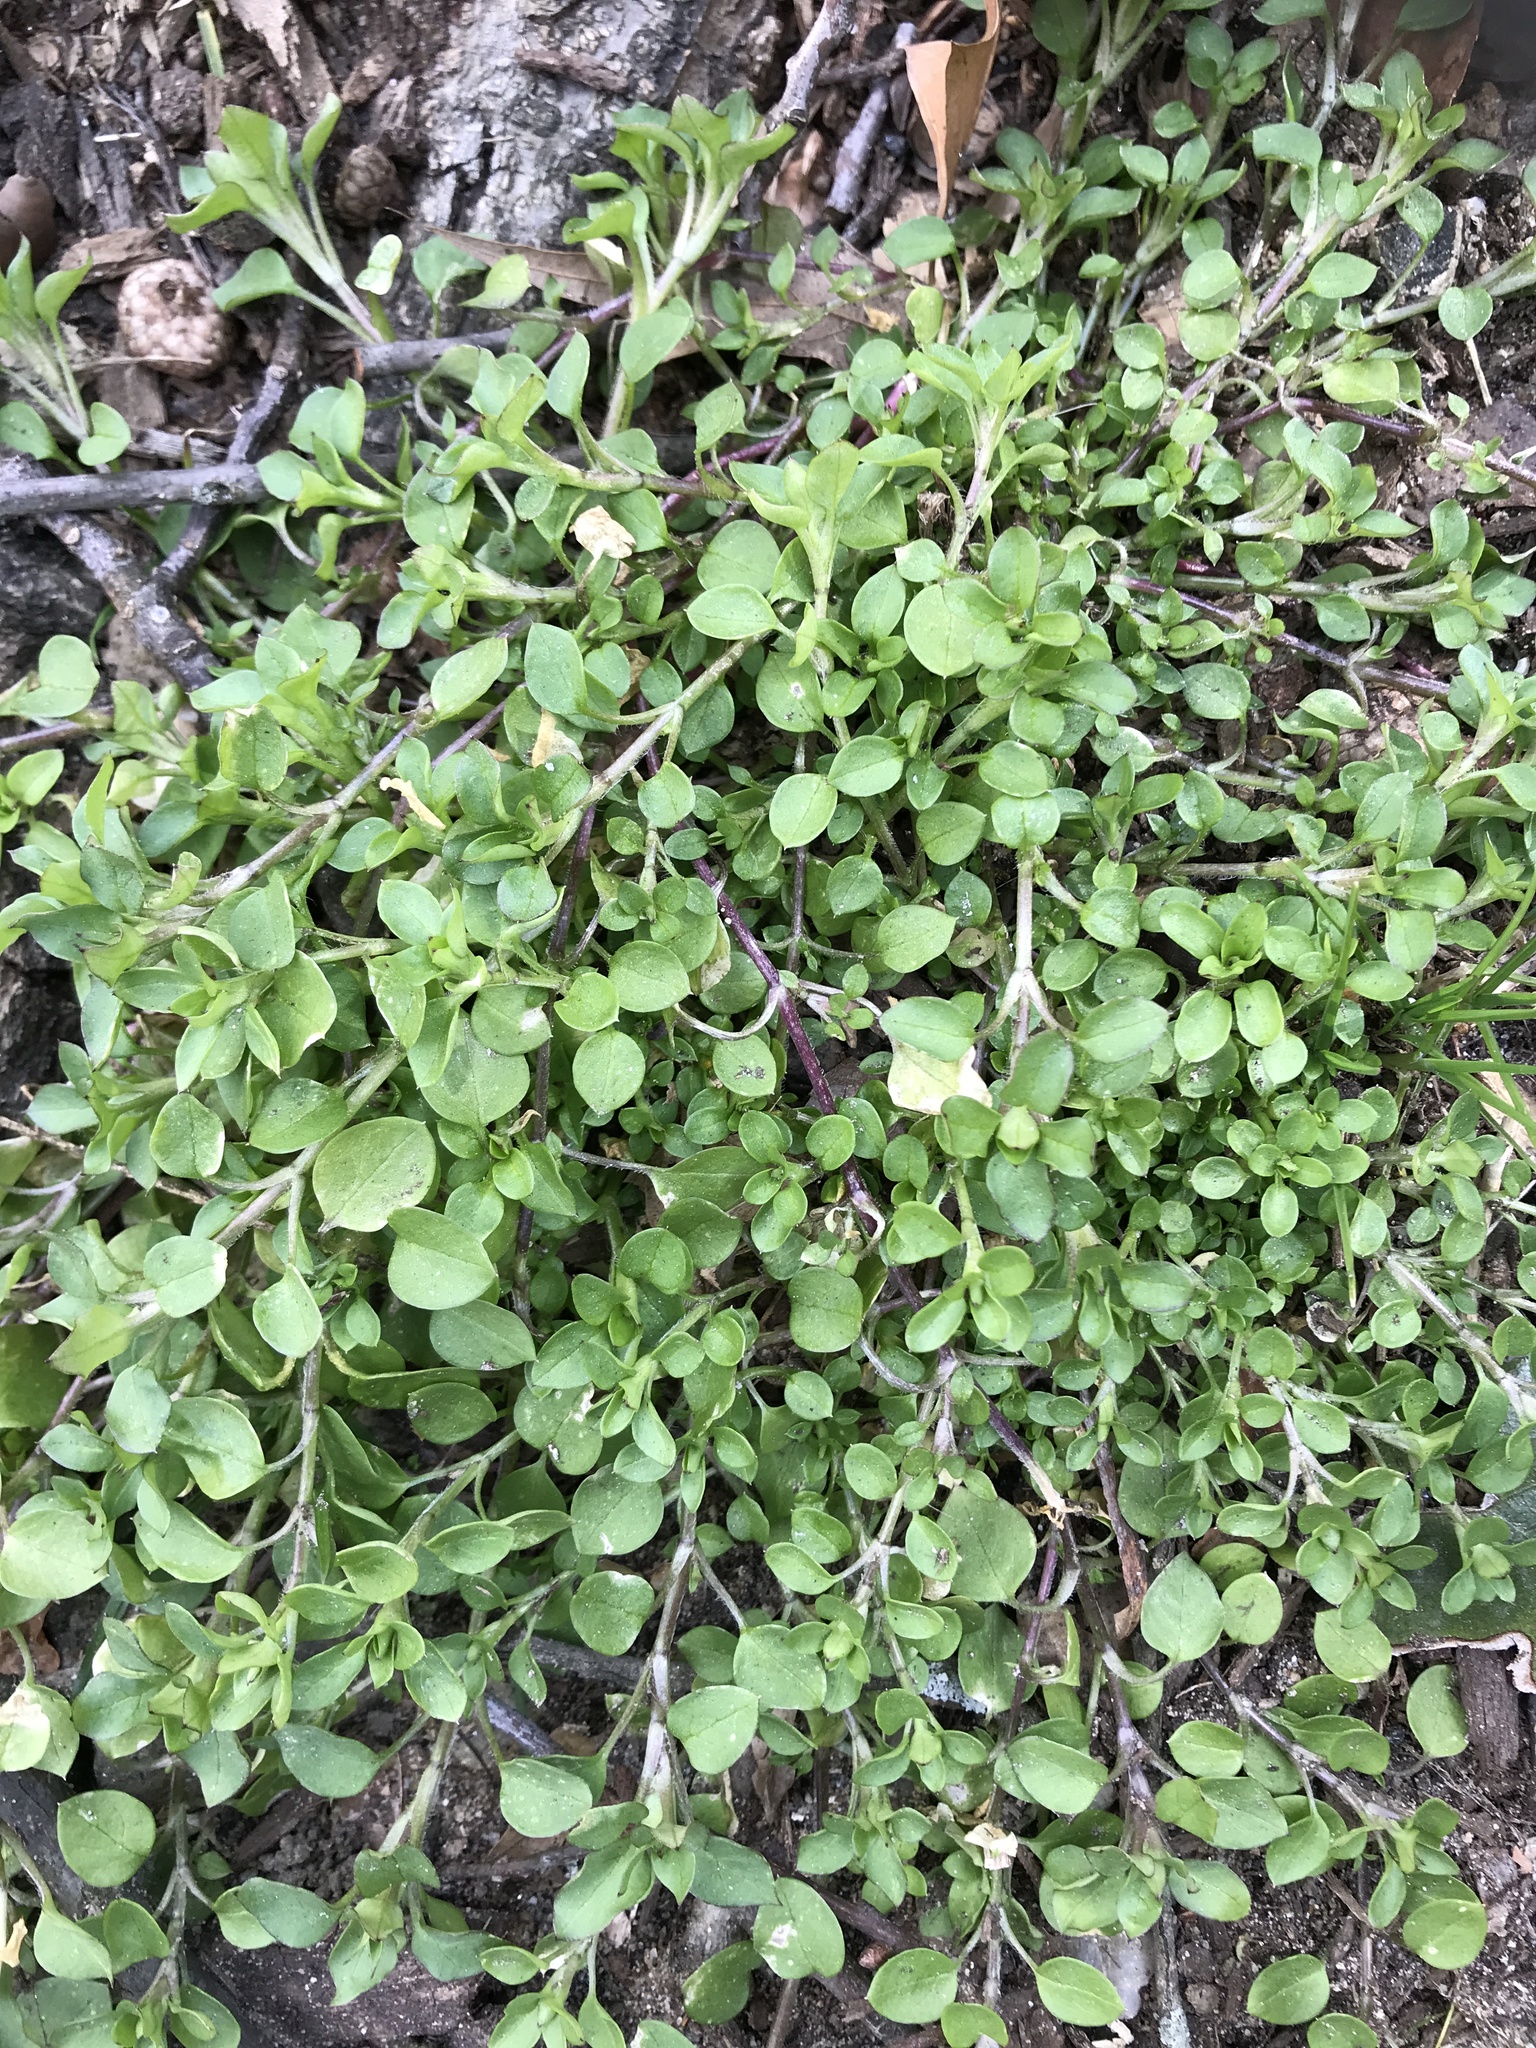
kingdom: Plantae
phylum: Tracheophyta
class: Magnoliopsida
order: Caryophyllales
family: Caryophyllaceae
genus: Stellaria
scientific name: Stellaria media
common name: Common chickweed
